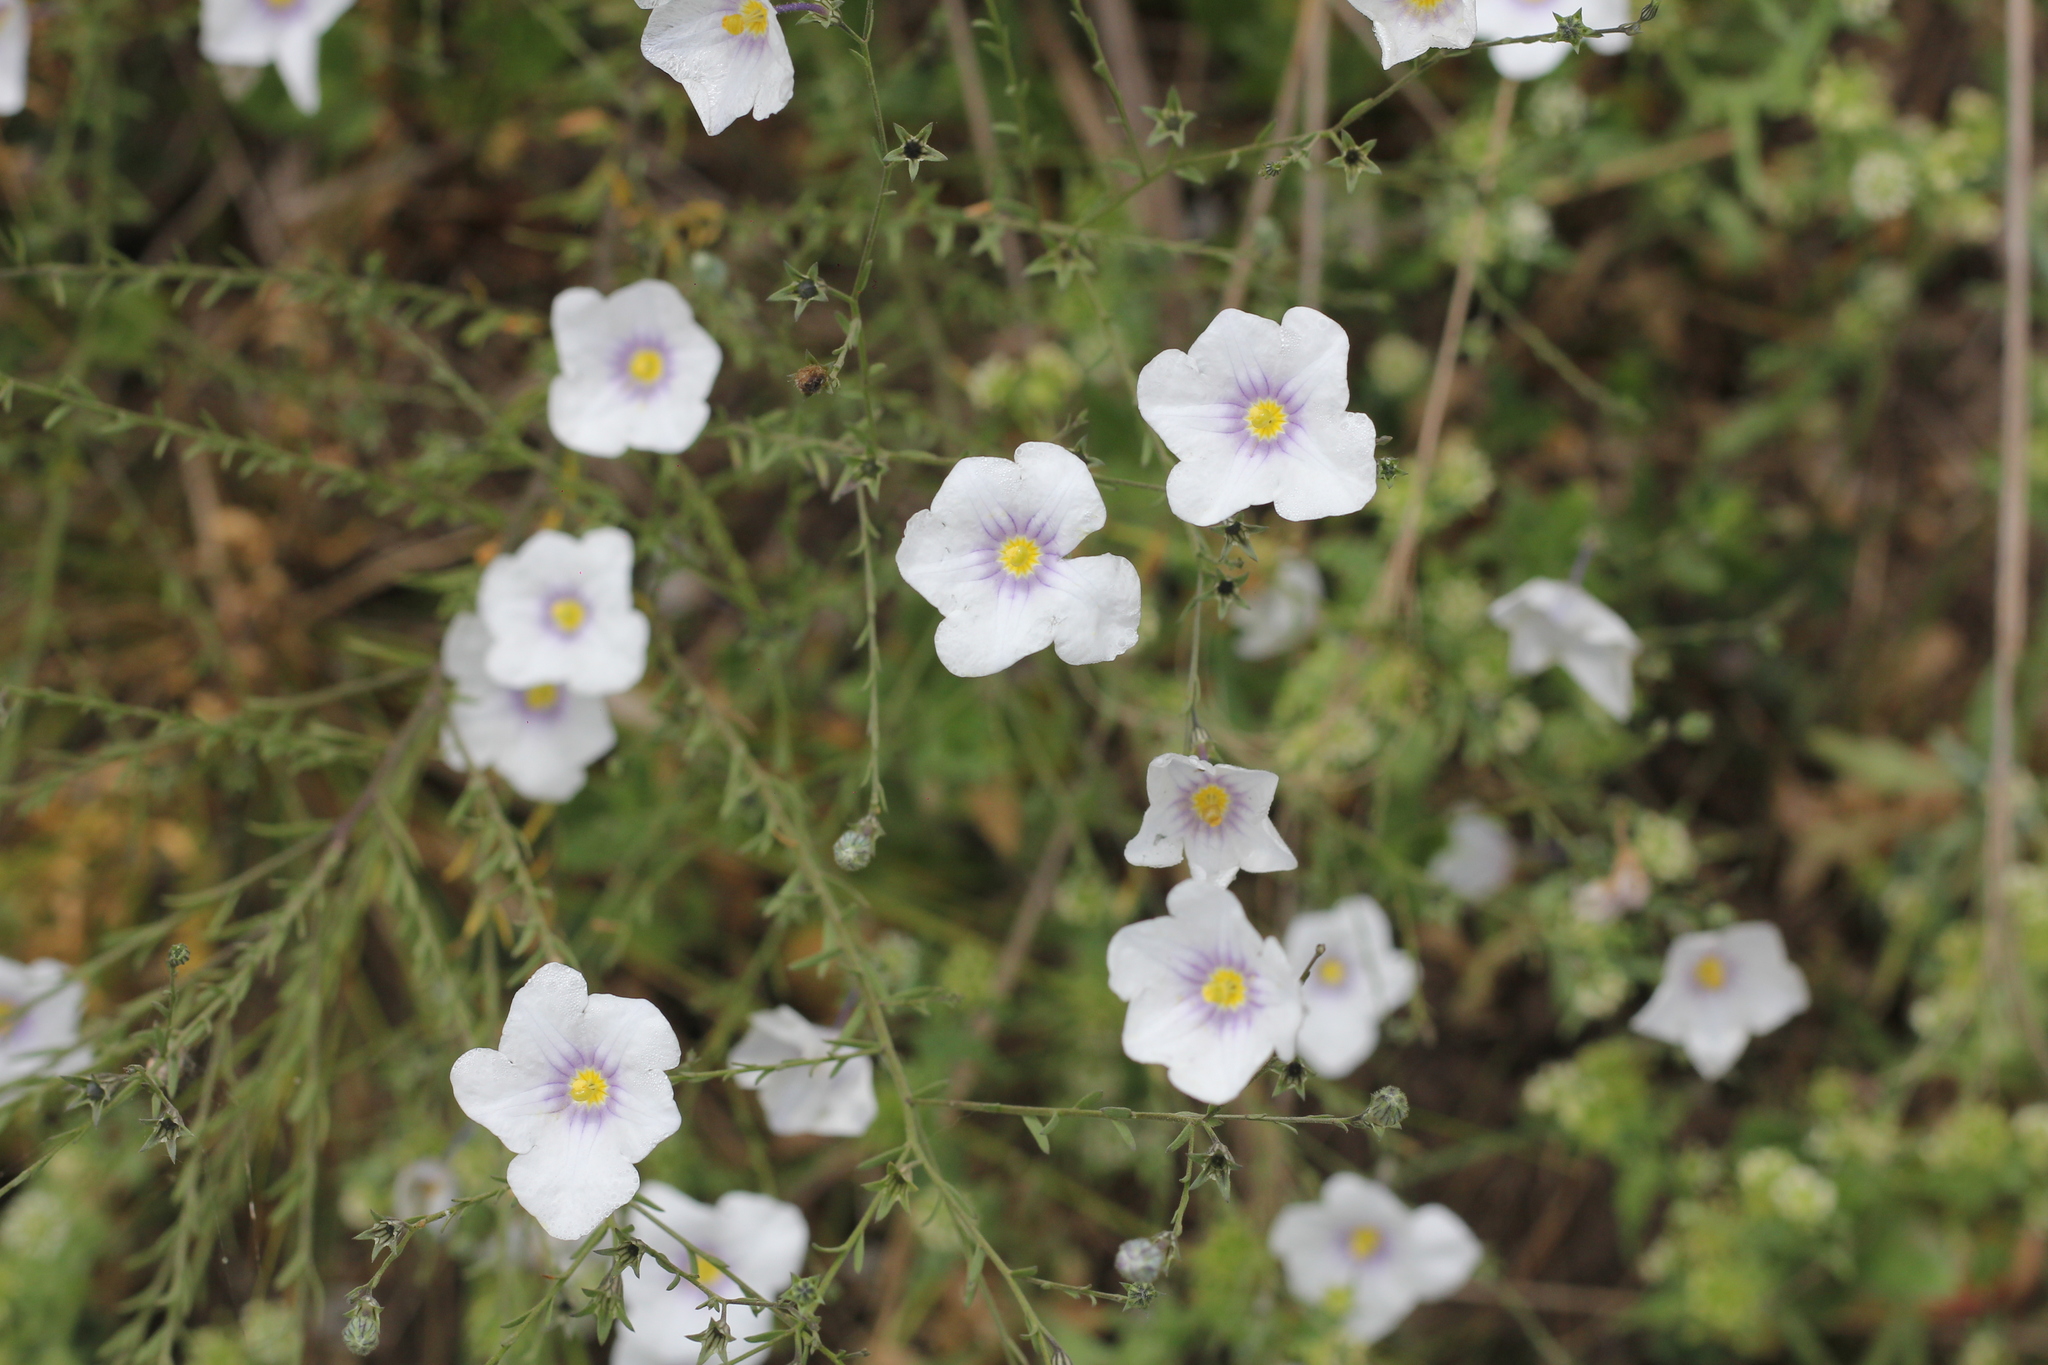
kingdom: Plantae
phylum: Tracheophyta
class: Magnoliopsida
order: Solanales
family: Solanaceae
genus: Nierembergia
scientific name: Nierembergia scoparia
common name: Broom cupflower
